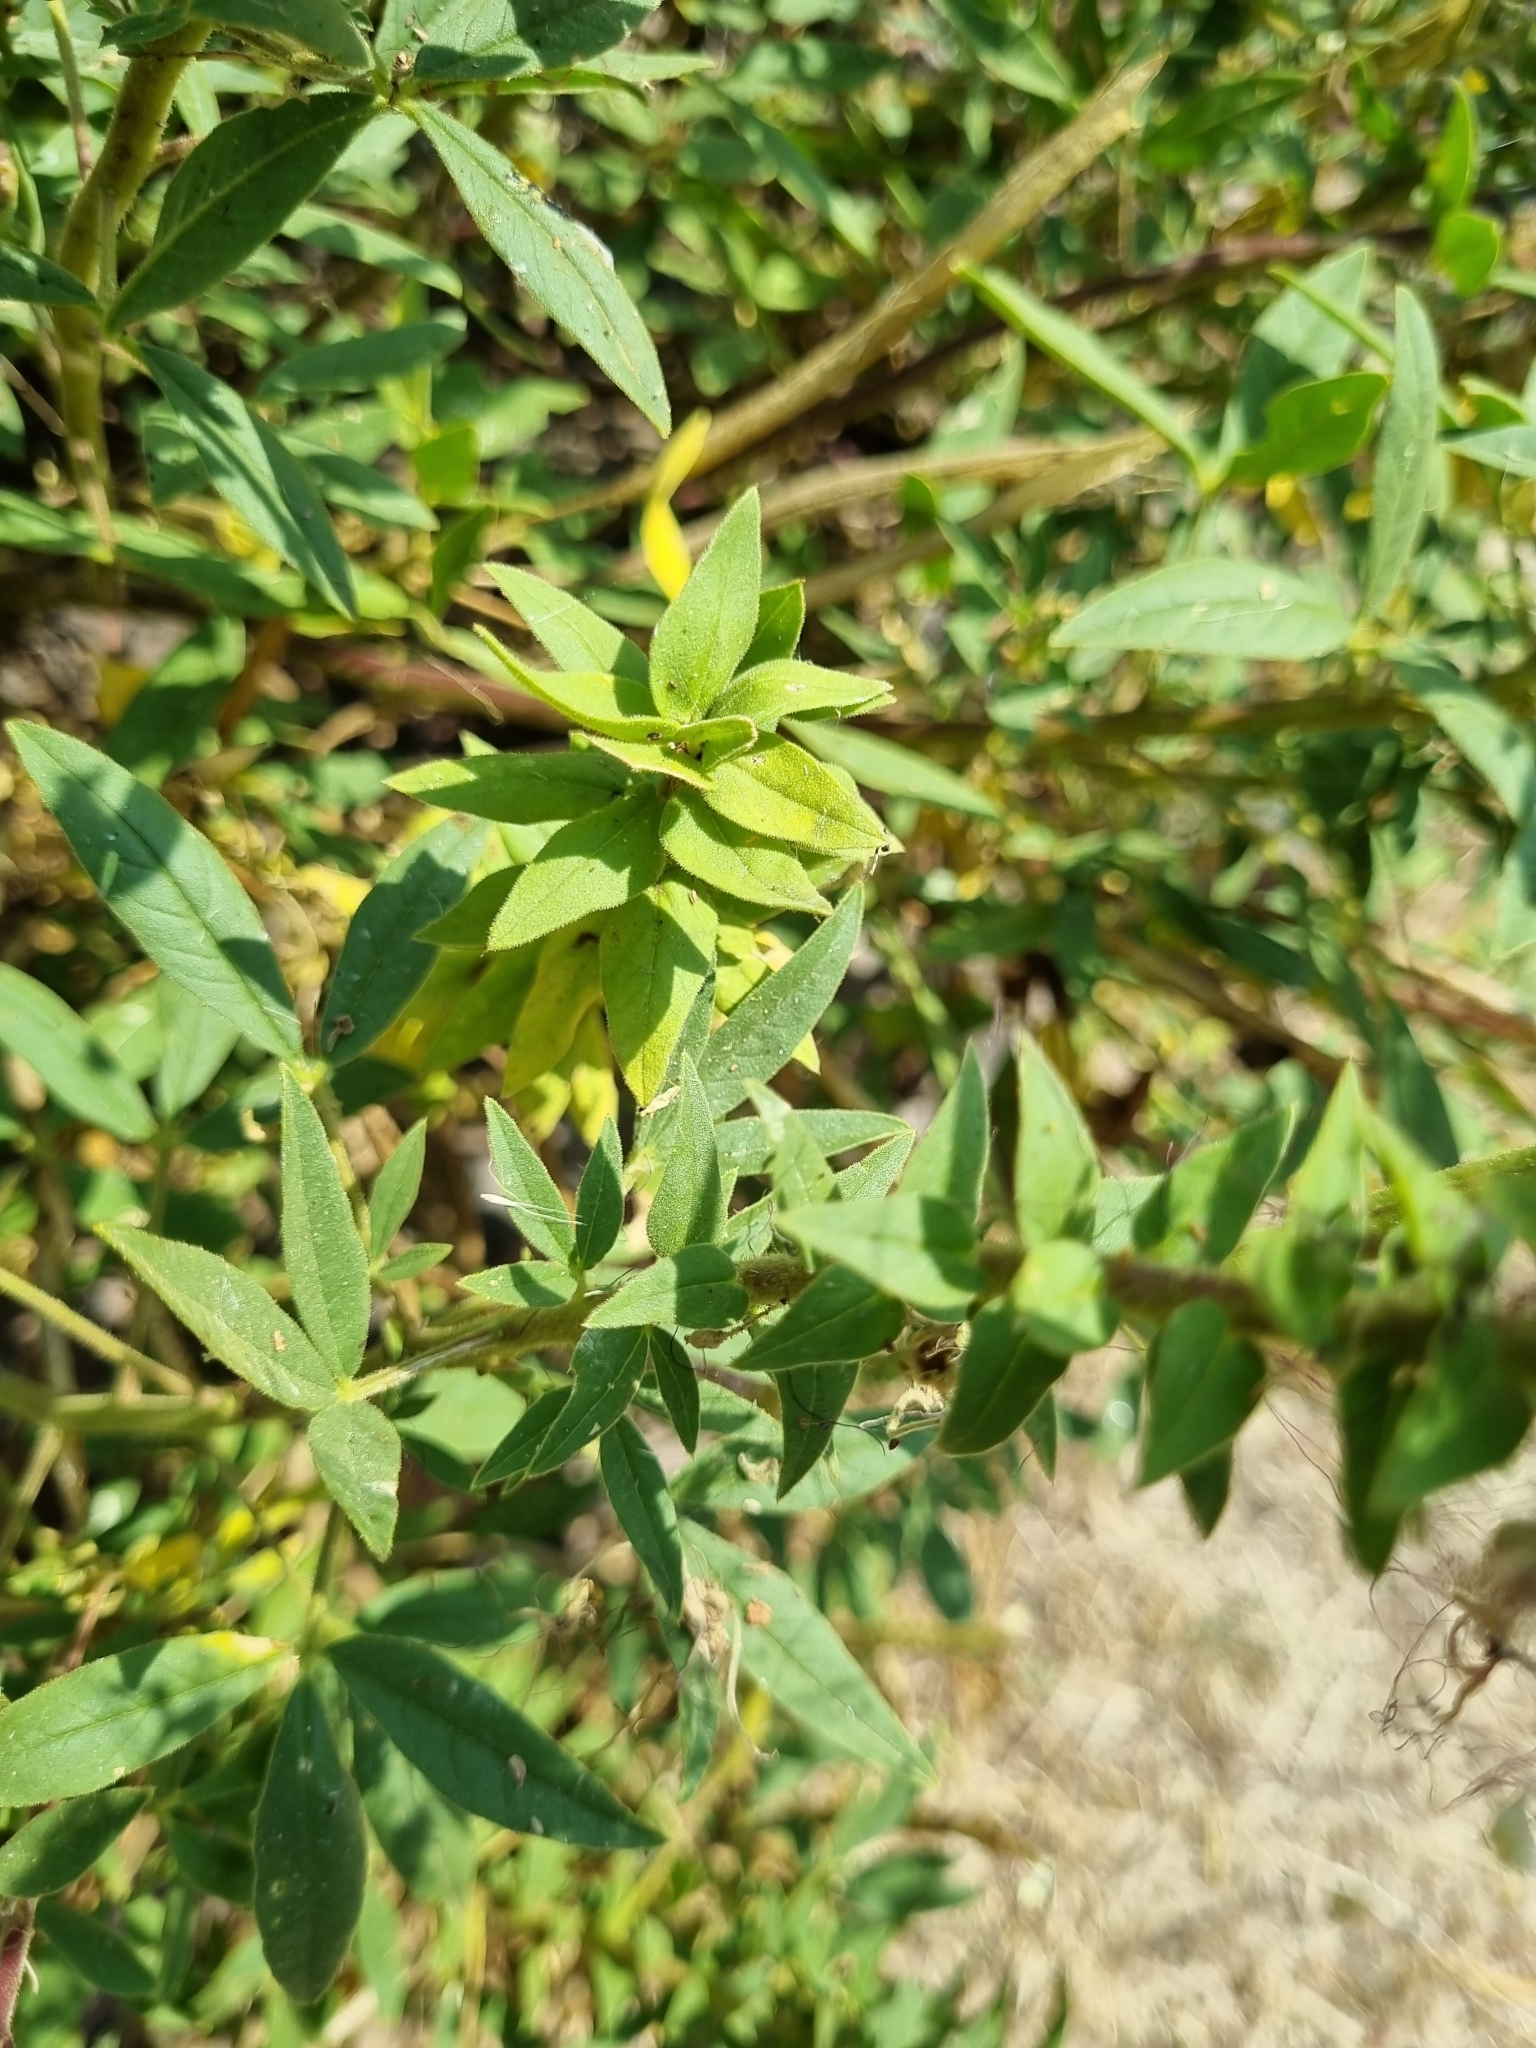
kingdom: Plantae
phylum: Tracheophyta
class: Magnoliopsida
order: Brassicales
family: Cleomaceae
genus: Polanisia
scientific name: Polanisia dodecandra
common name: Clammyweed
